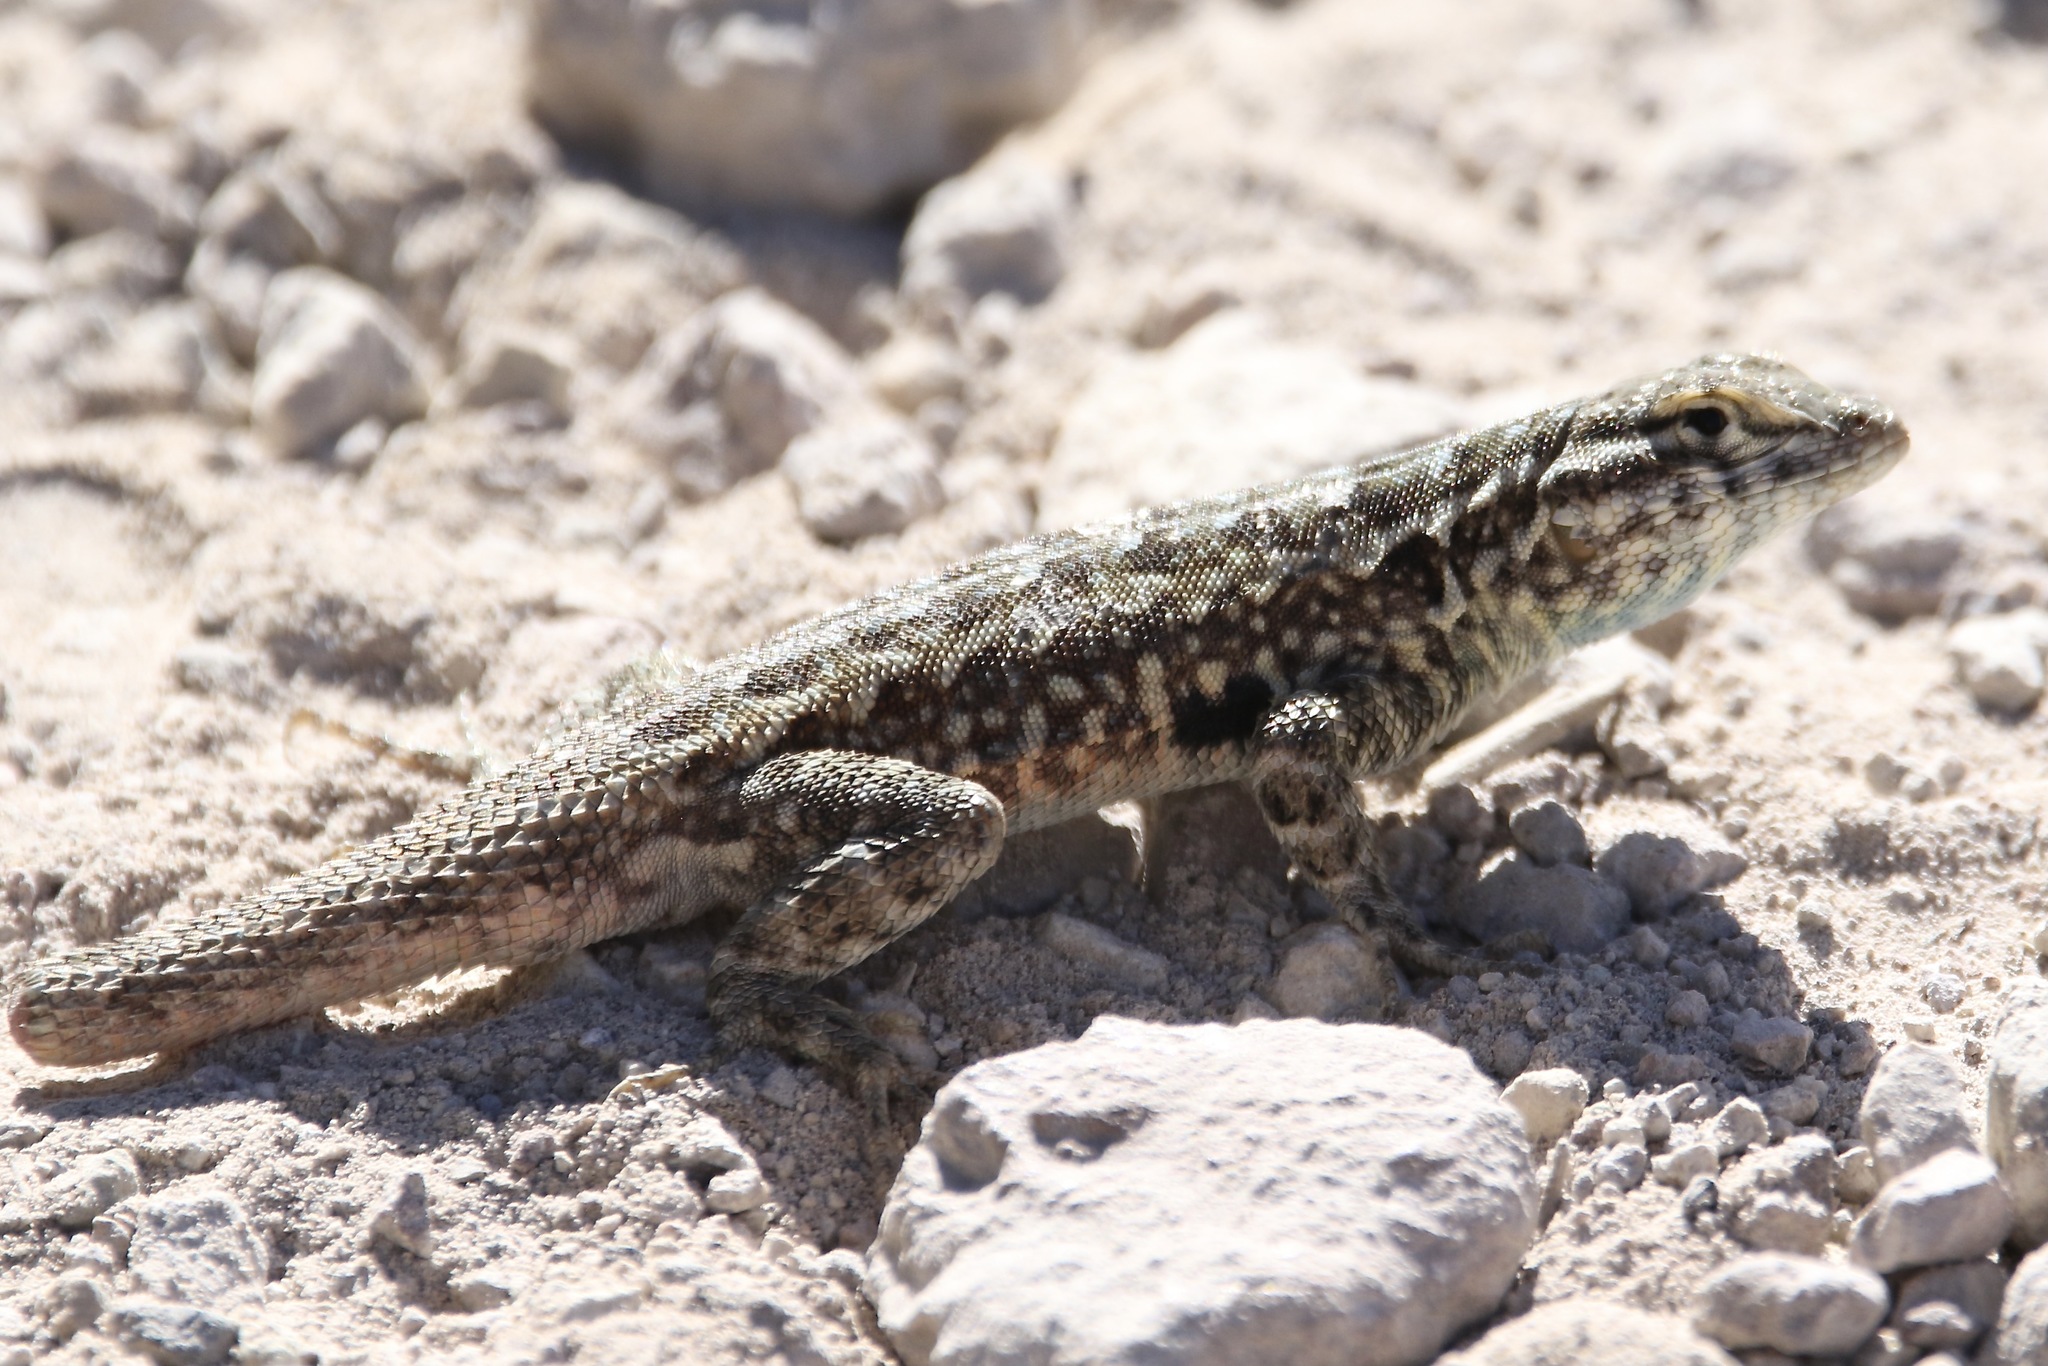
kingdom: Animalia
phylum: Chordata
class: Squamata
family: Phrynosomatidae
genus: Uta
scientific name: Uta stansburiana
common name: Side-blotched lizard
